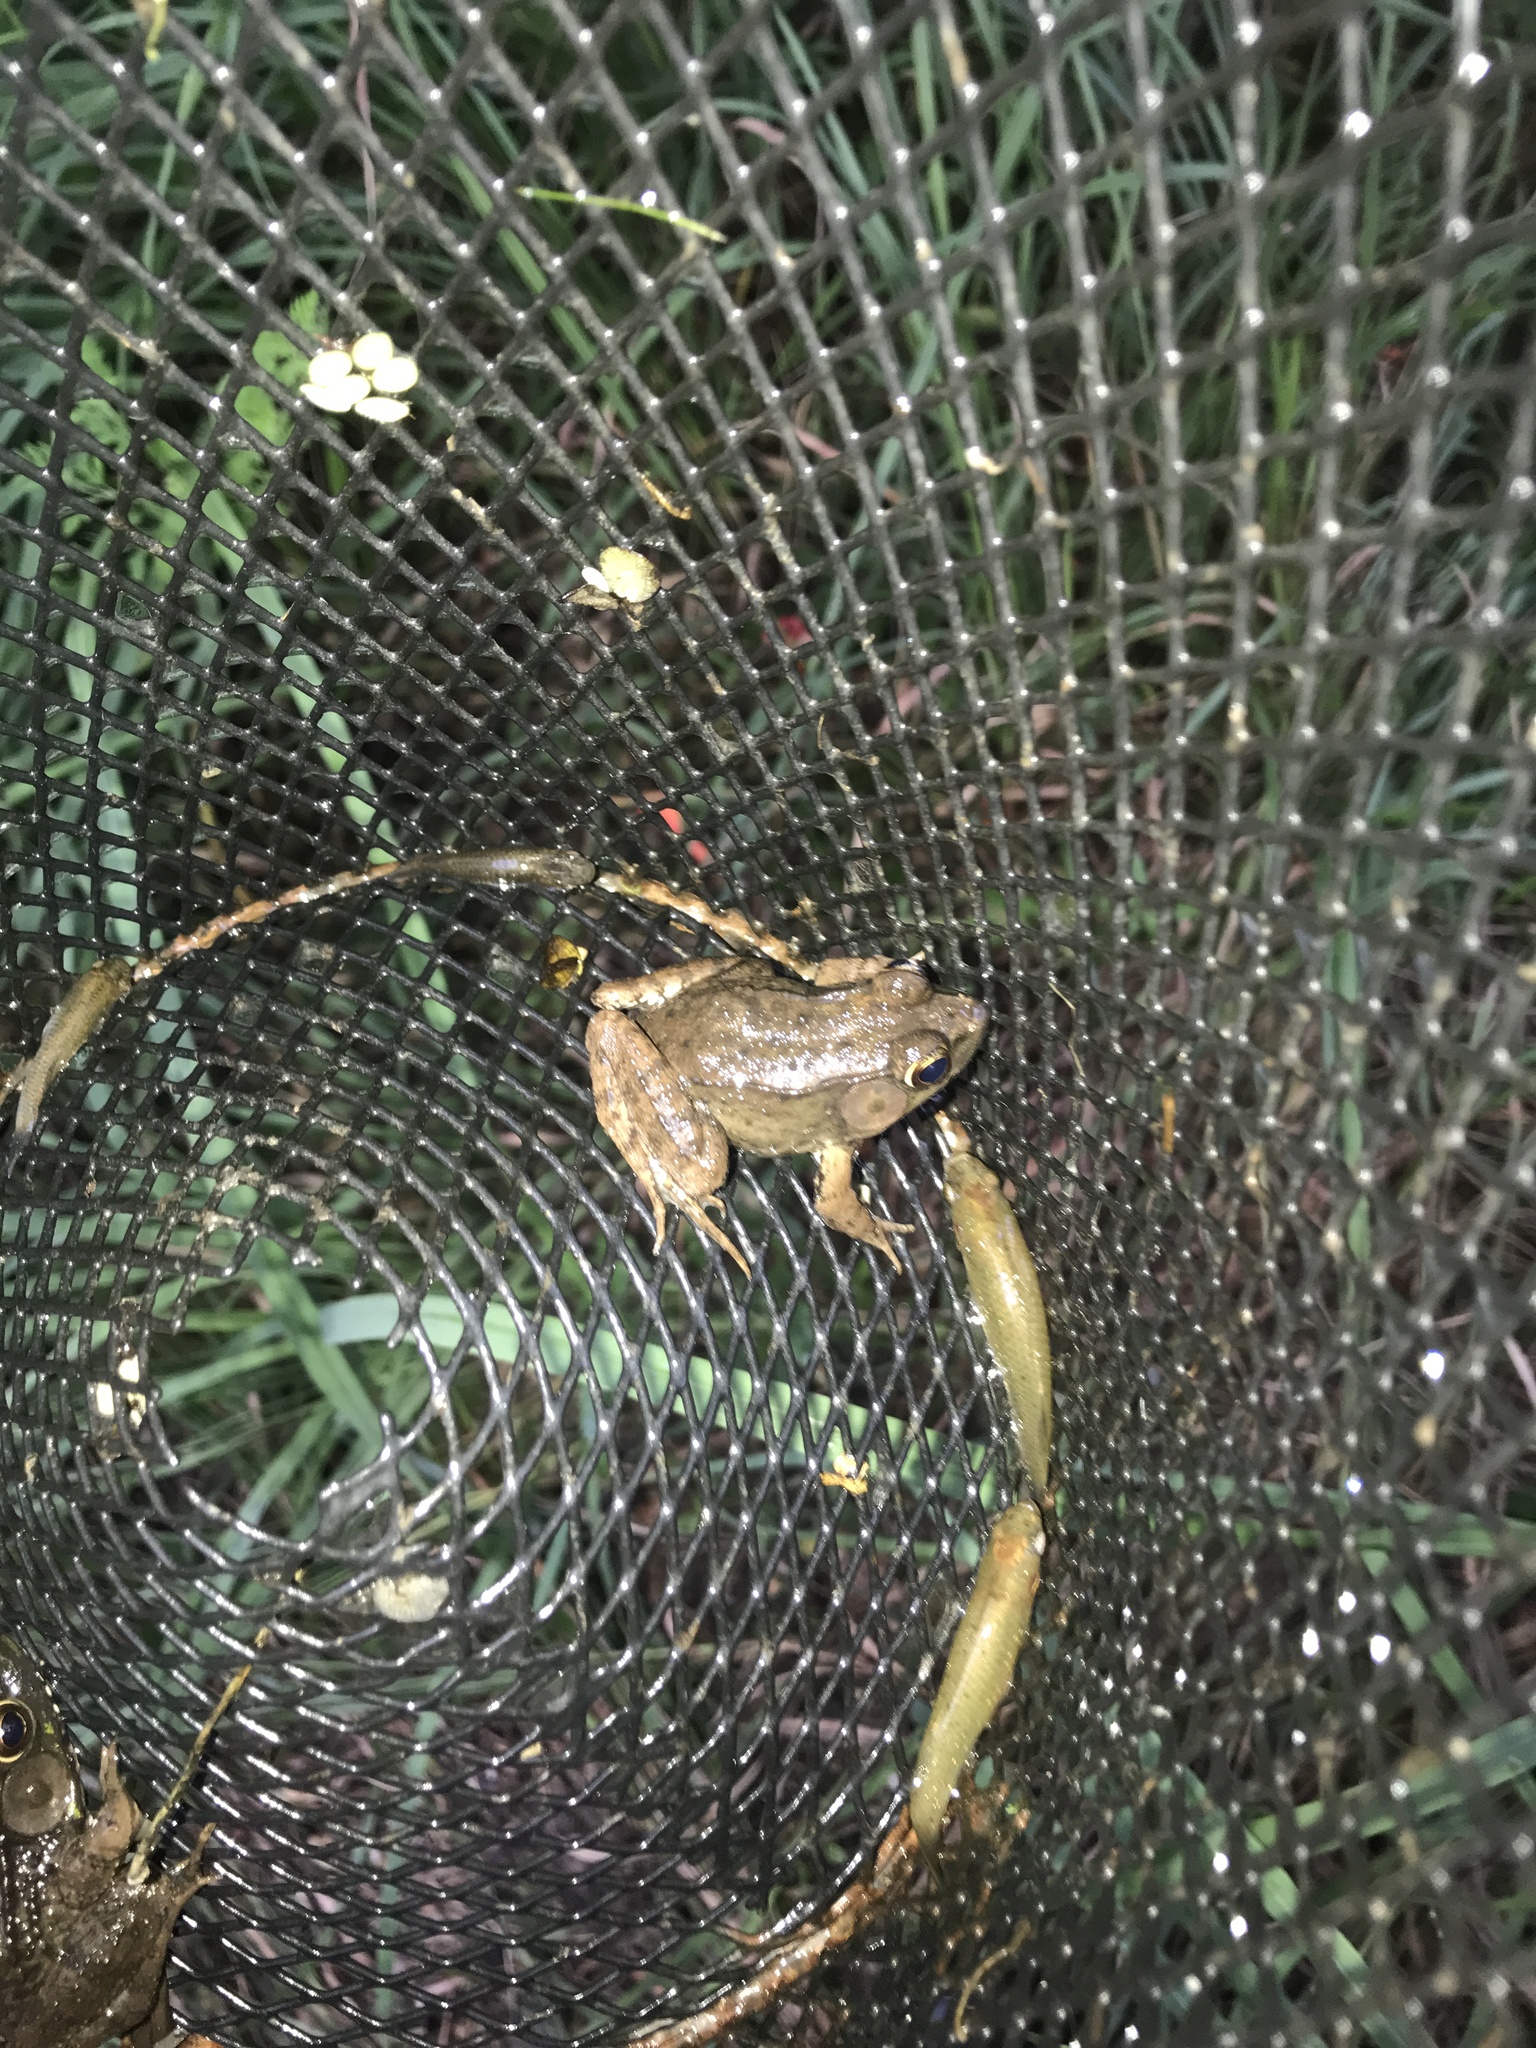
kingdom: Animalia
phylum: Chordata
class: Amphibia
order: Anura
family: Ranidae
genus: Lithobates
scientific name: Lithobates clamitans
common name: Green frog
